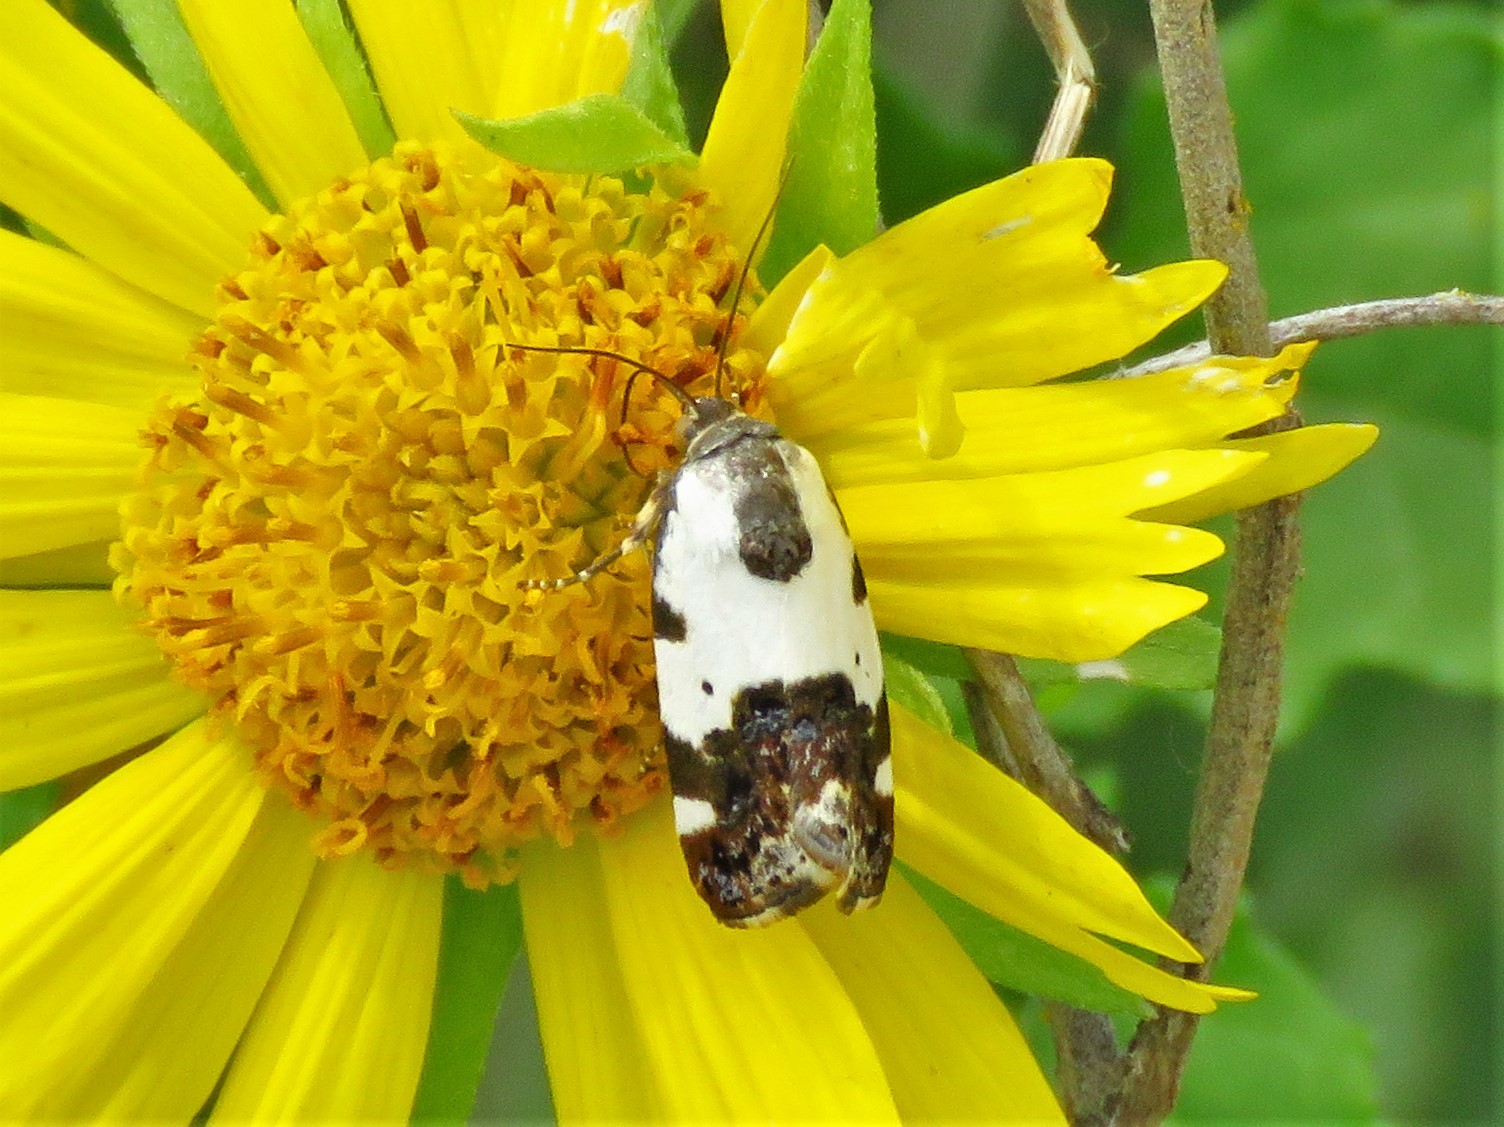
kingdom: Animalia
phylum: Arthropoda
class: Insecta
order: Lepidoptera
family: Noctuidae
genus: Acontia
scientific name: Acontia Tarache abdominalis
